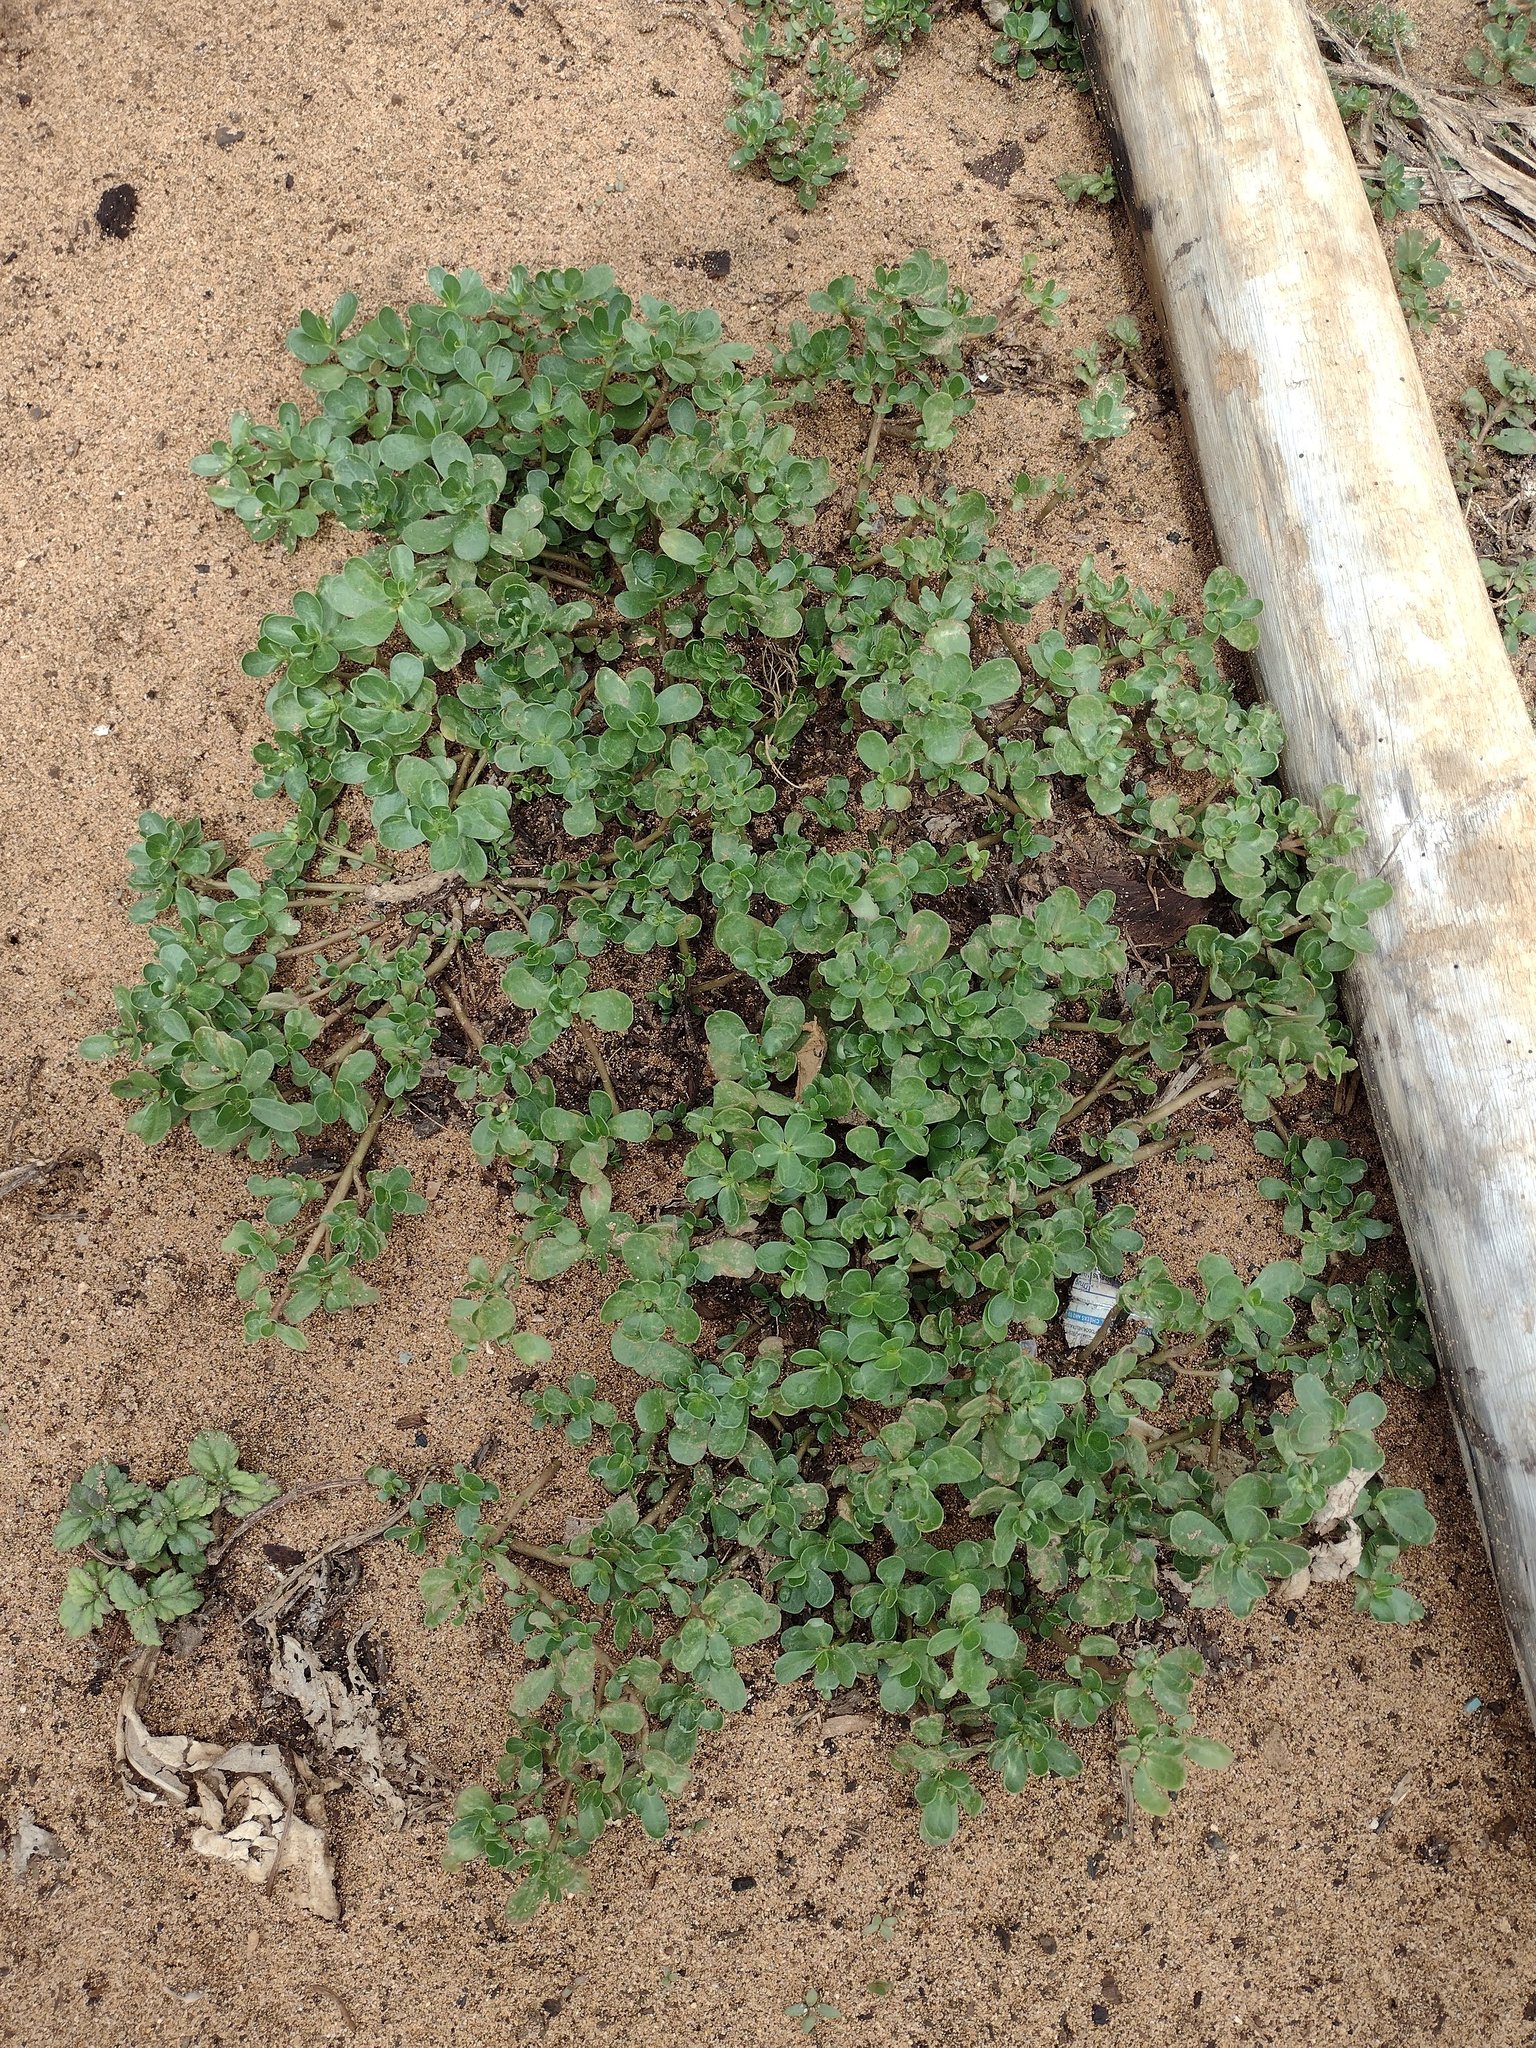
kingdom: Plantae
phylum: Tracheophyta
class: Magnoliopsida
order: Caryophyllales
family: Portulacaceae
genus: Portulaca
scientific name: Portulaca oleracea
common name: Common purslane
